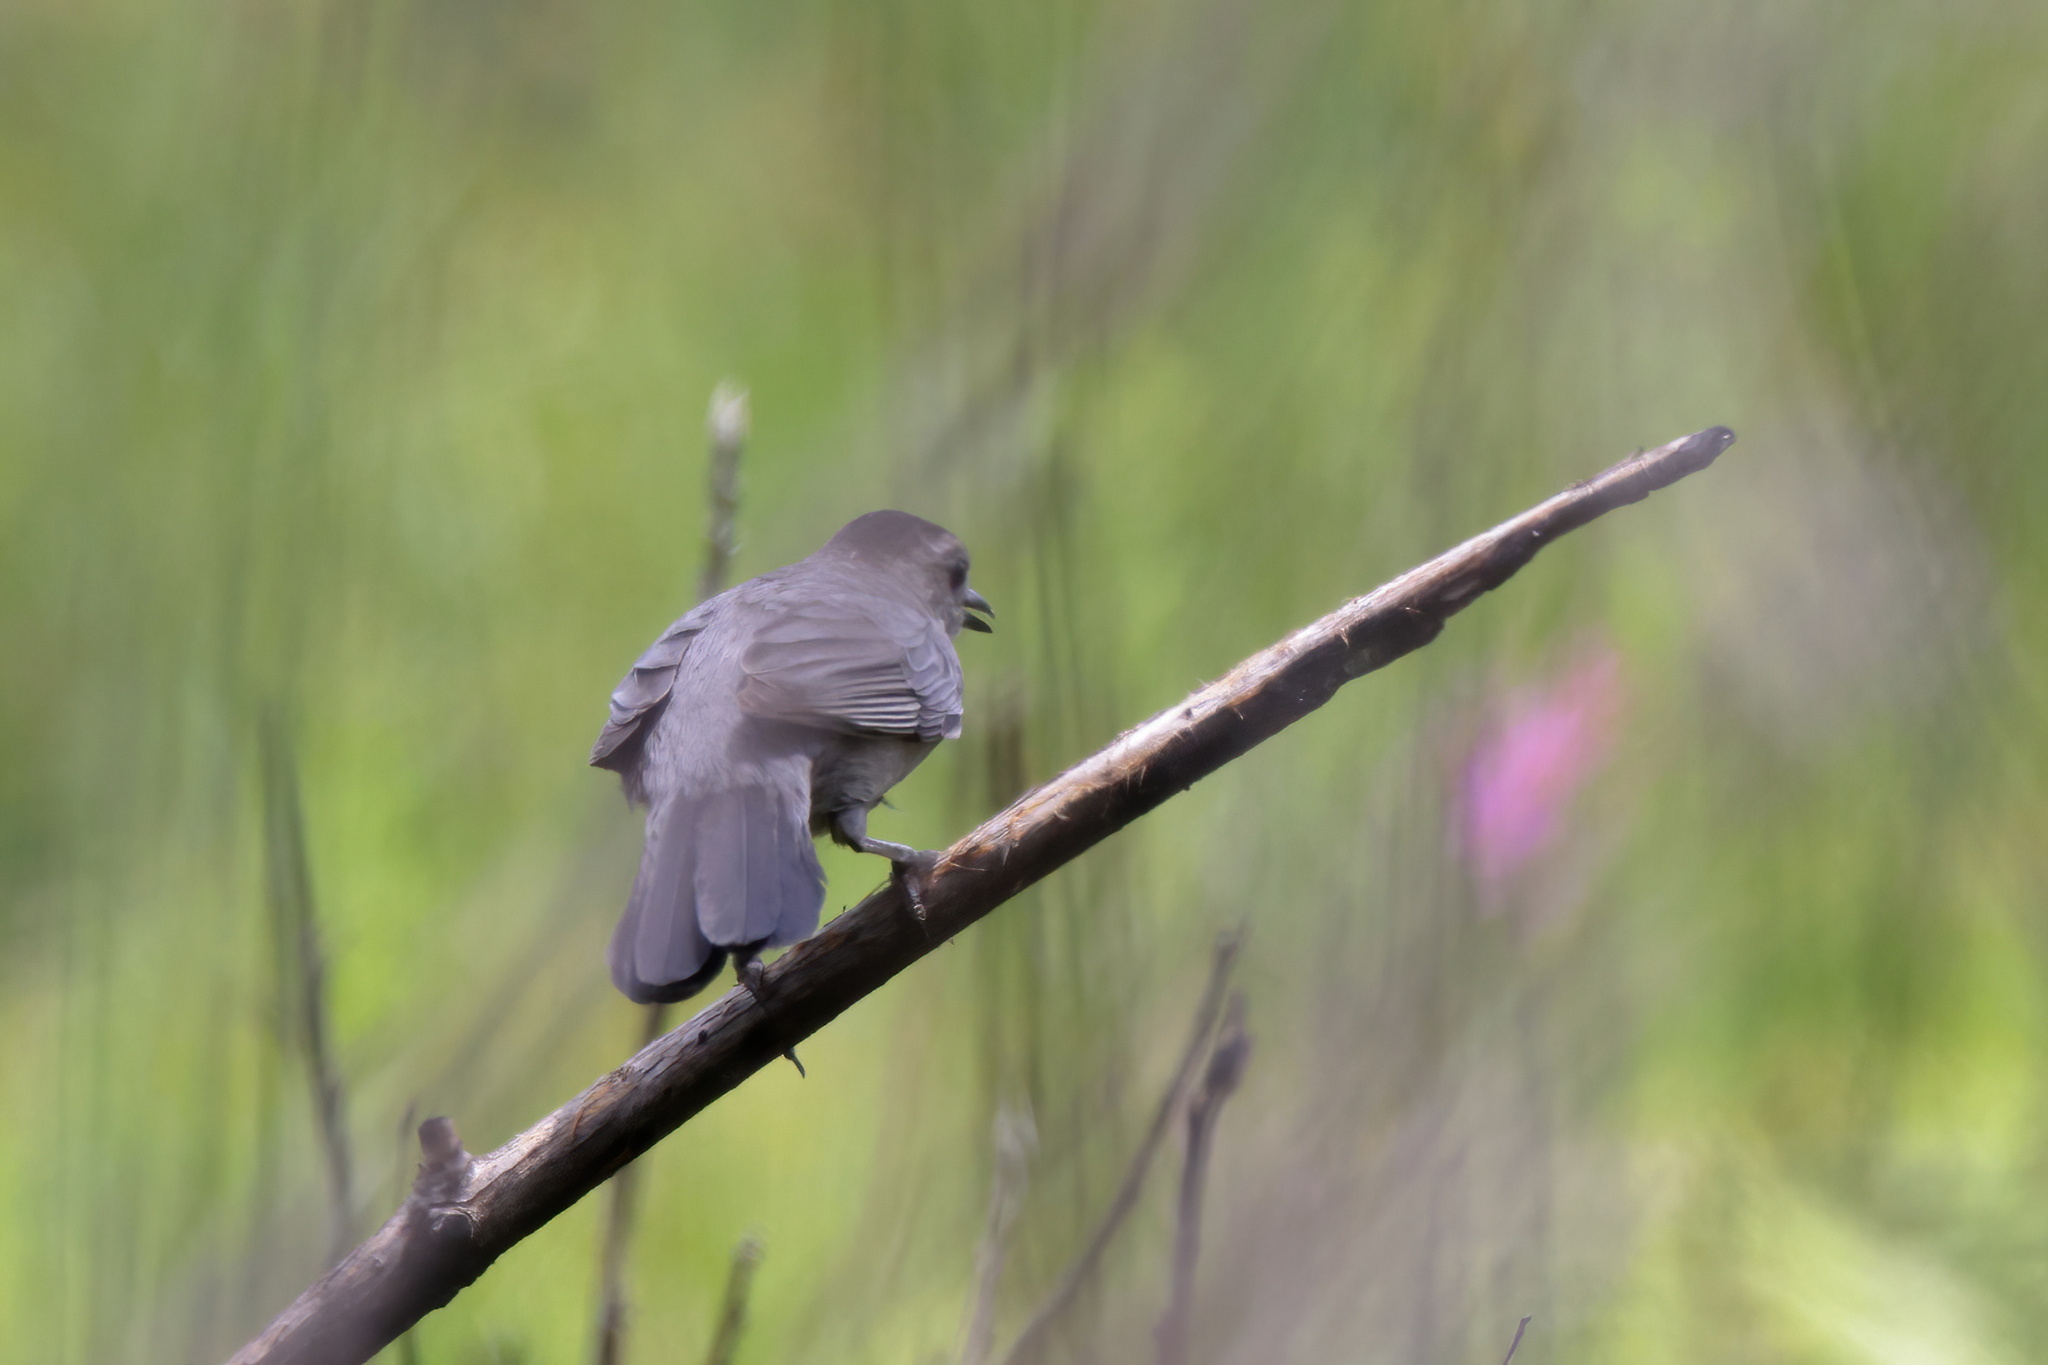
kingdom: Animalia
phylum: Chordata
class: Aves
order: Passeriformes
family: Mimidae
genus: Dumetella
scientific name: Dumetella carolinensis
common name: Gray catbird
